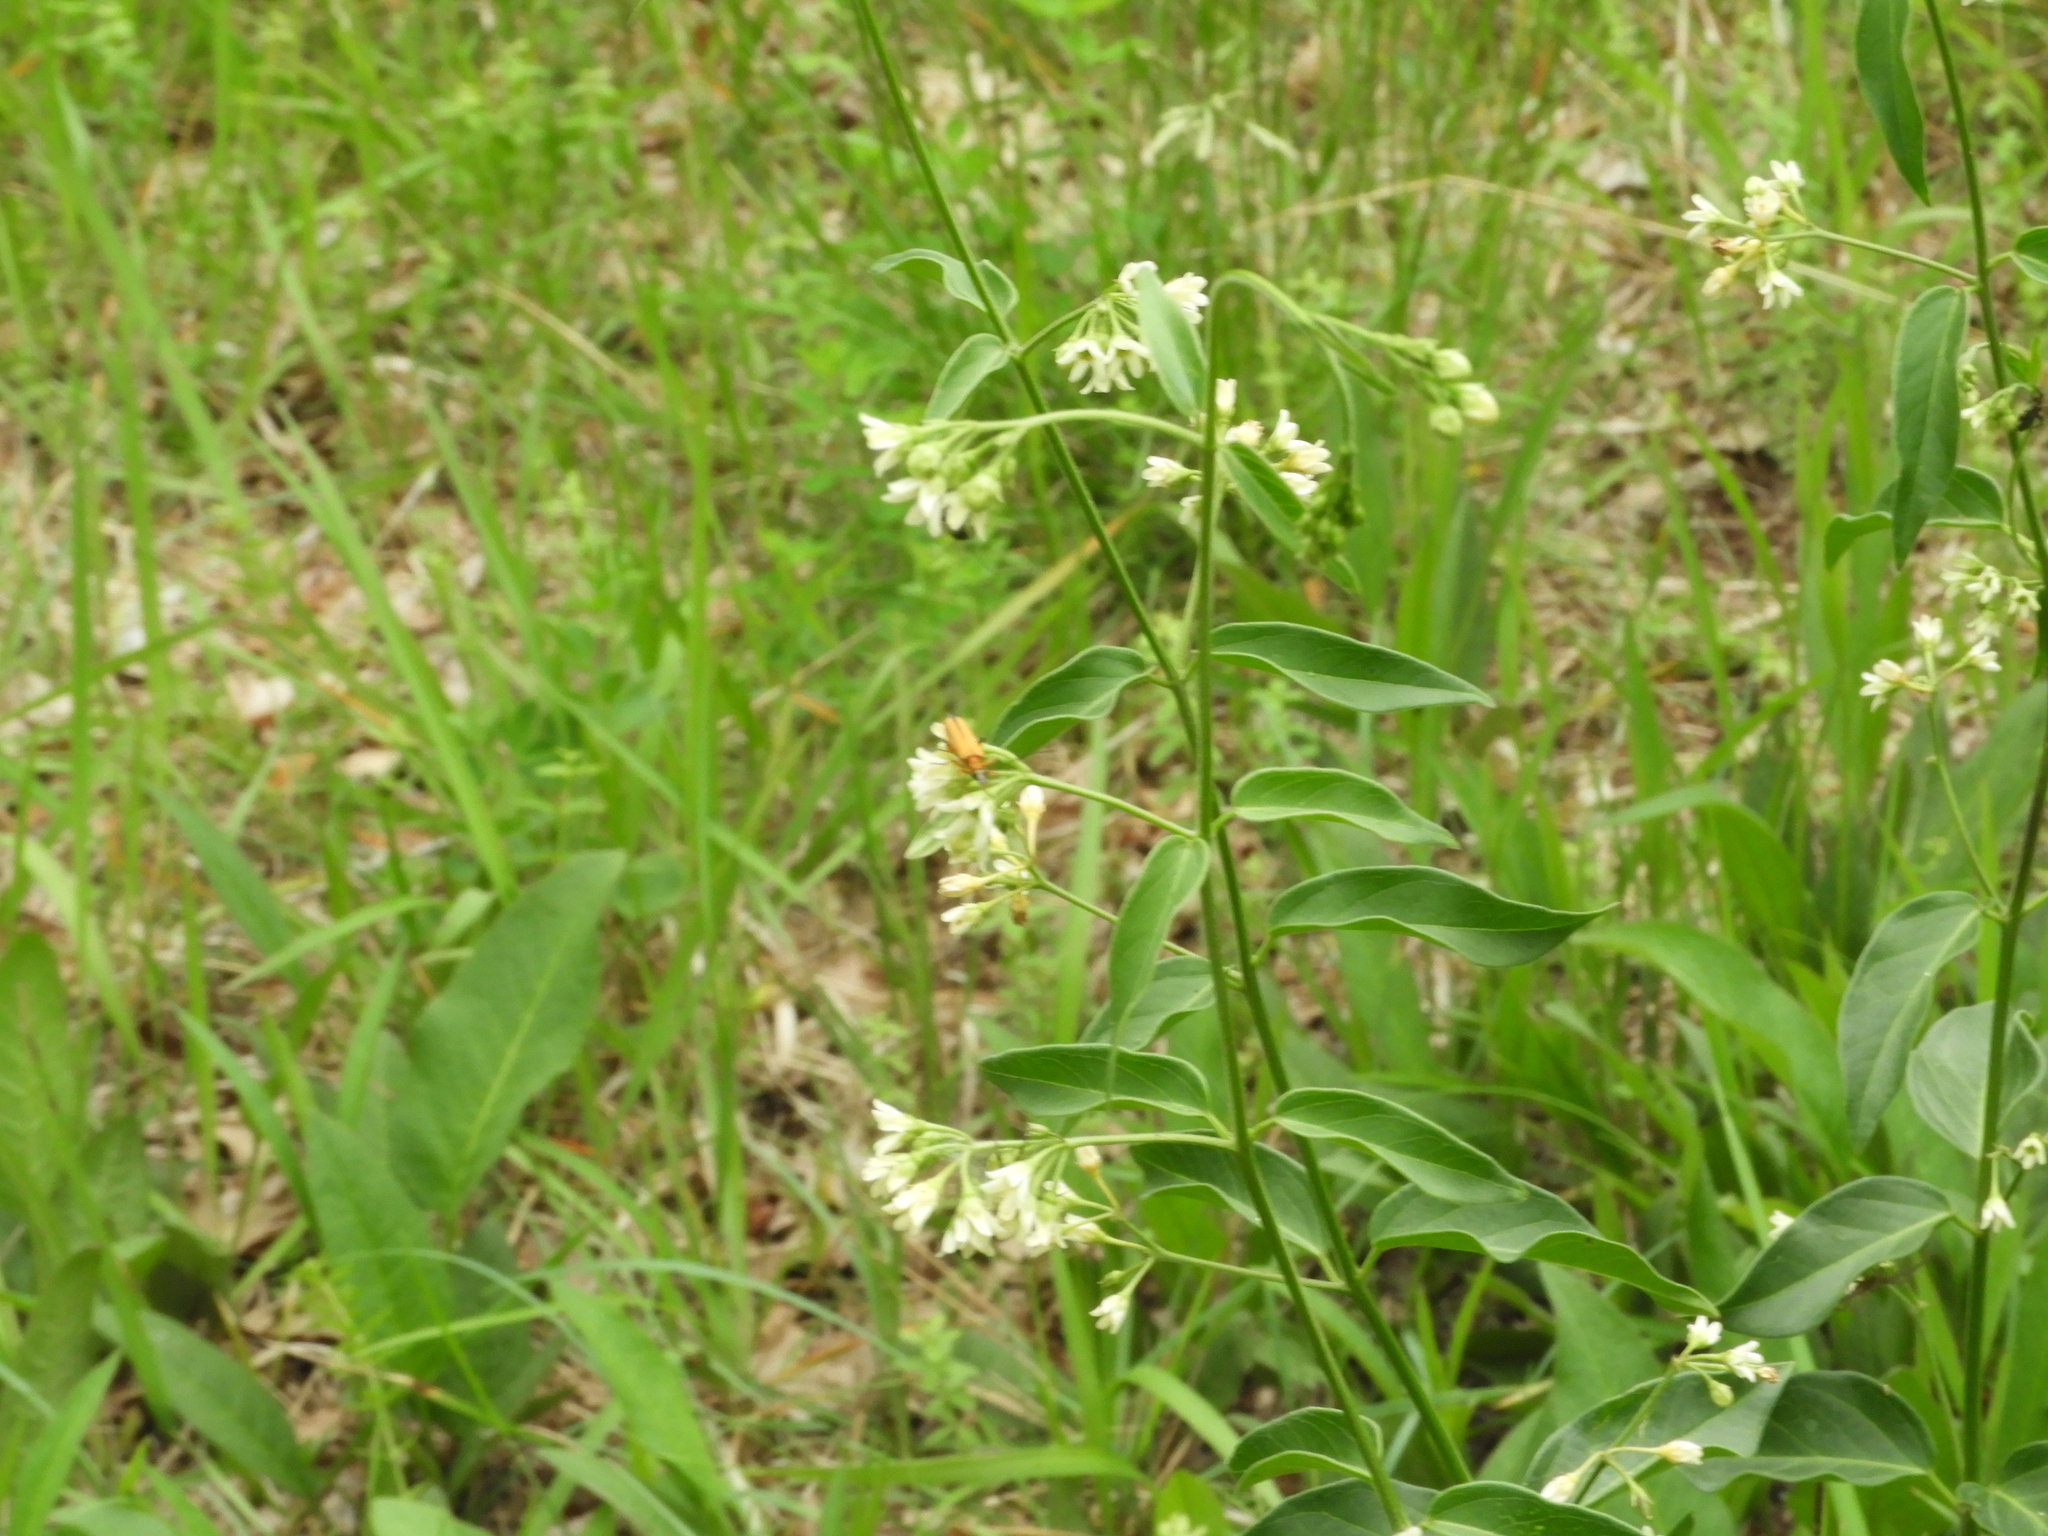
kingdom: Plantae
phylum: Tracheophyta
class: Magnoliopsida
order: Gentianales
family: Apocynaceae
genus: Vincetoxicum
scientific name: Vincetoxicum hirundinaria
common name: White swallowwort
